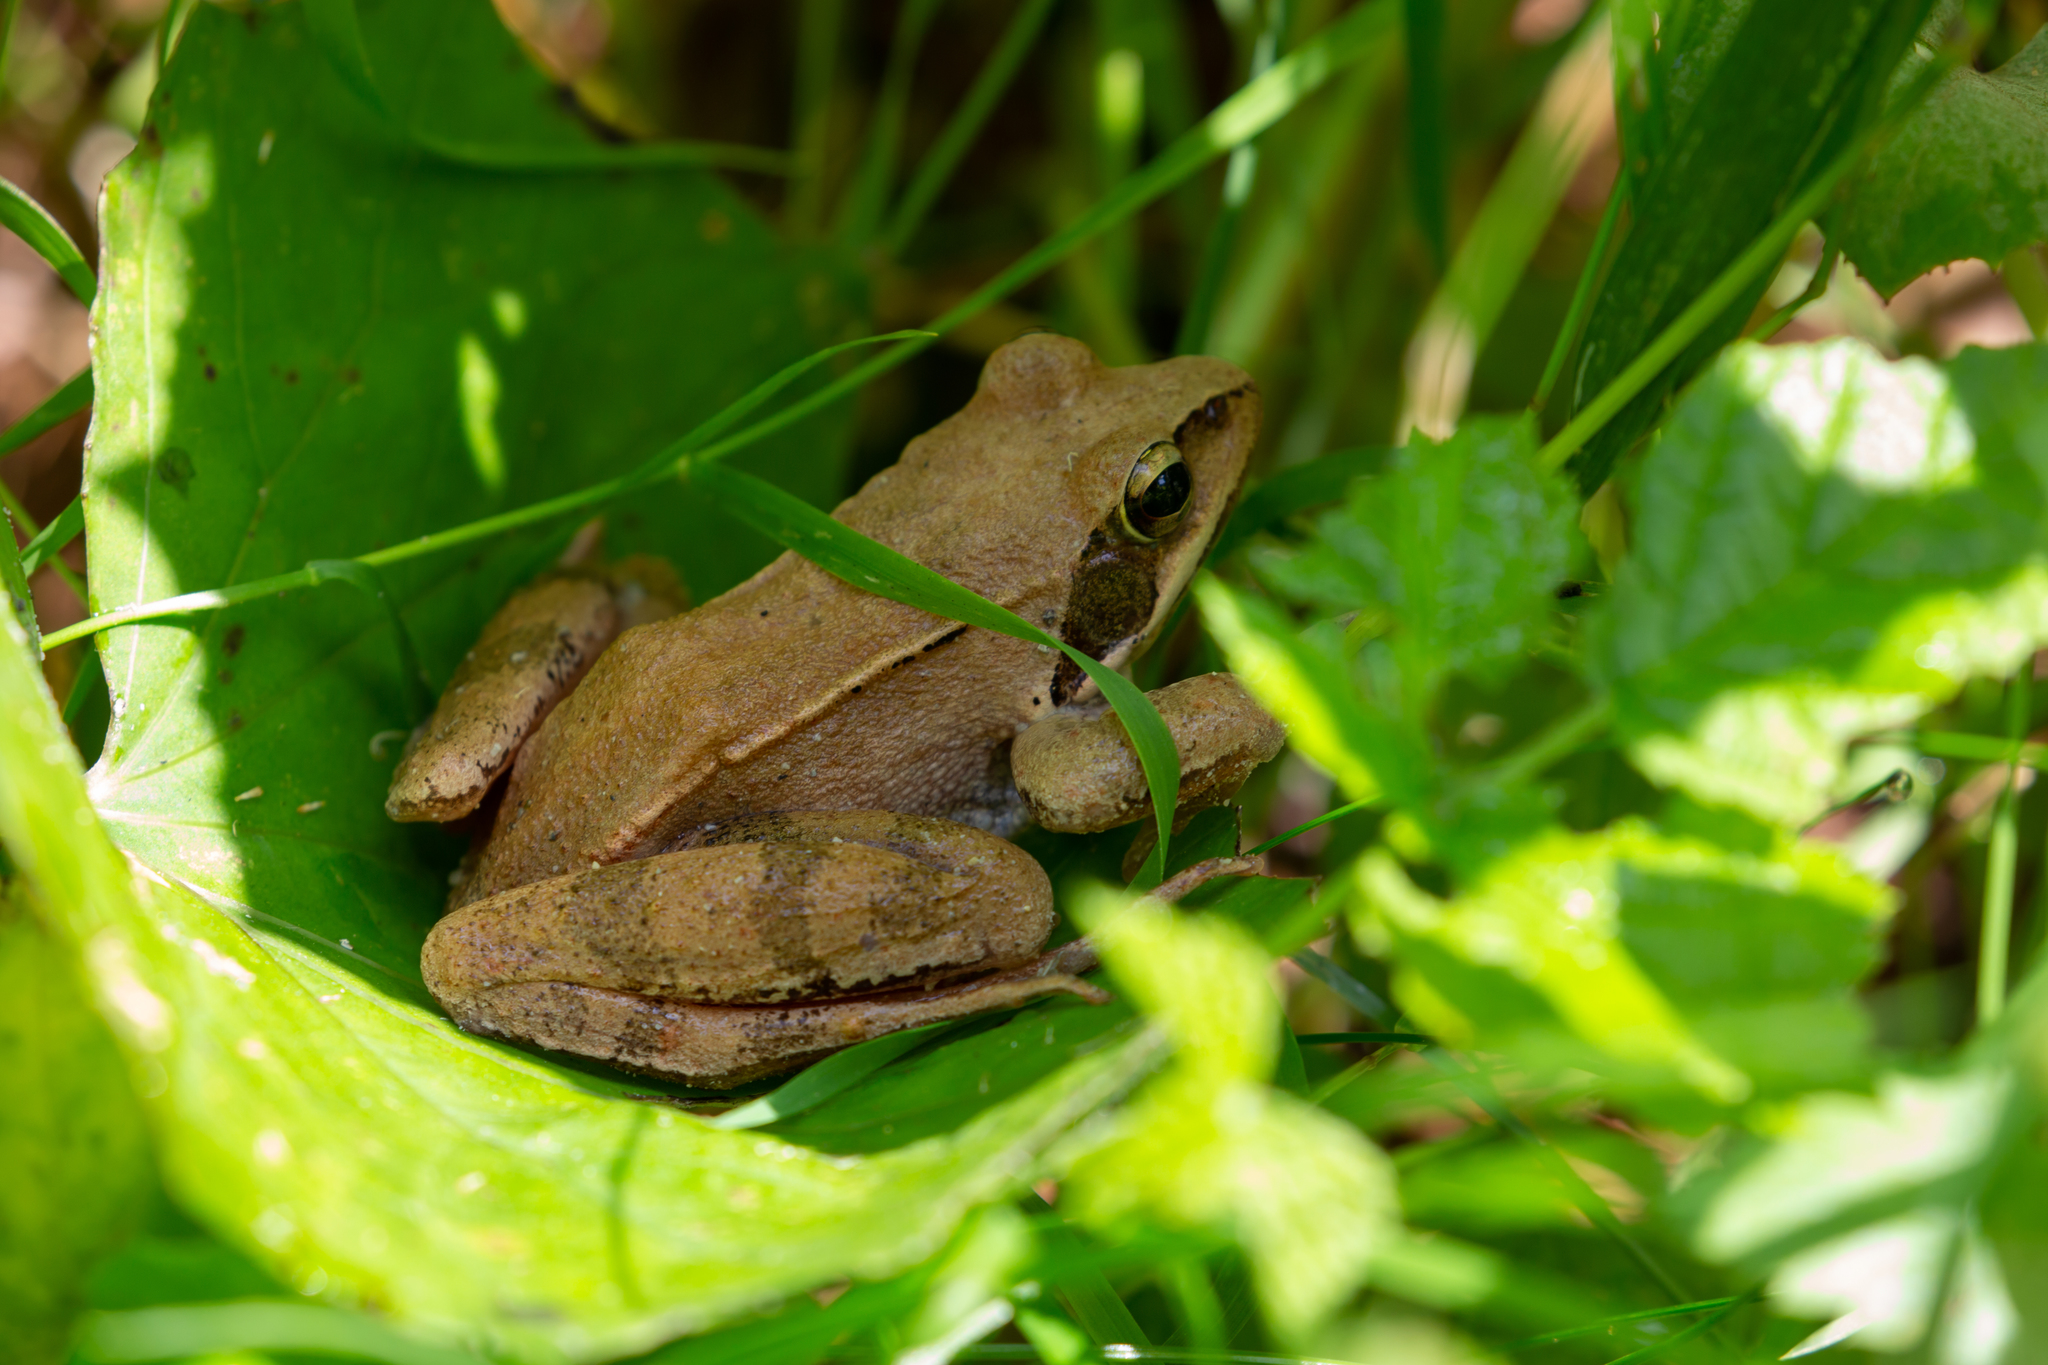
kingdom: Animalia
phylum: Chordata
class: Amphibia
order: Anura
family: Ranidae
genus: Rana
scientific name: Rana dalmatina
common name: Agile frog
